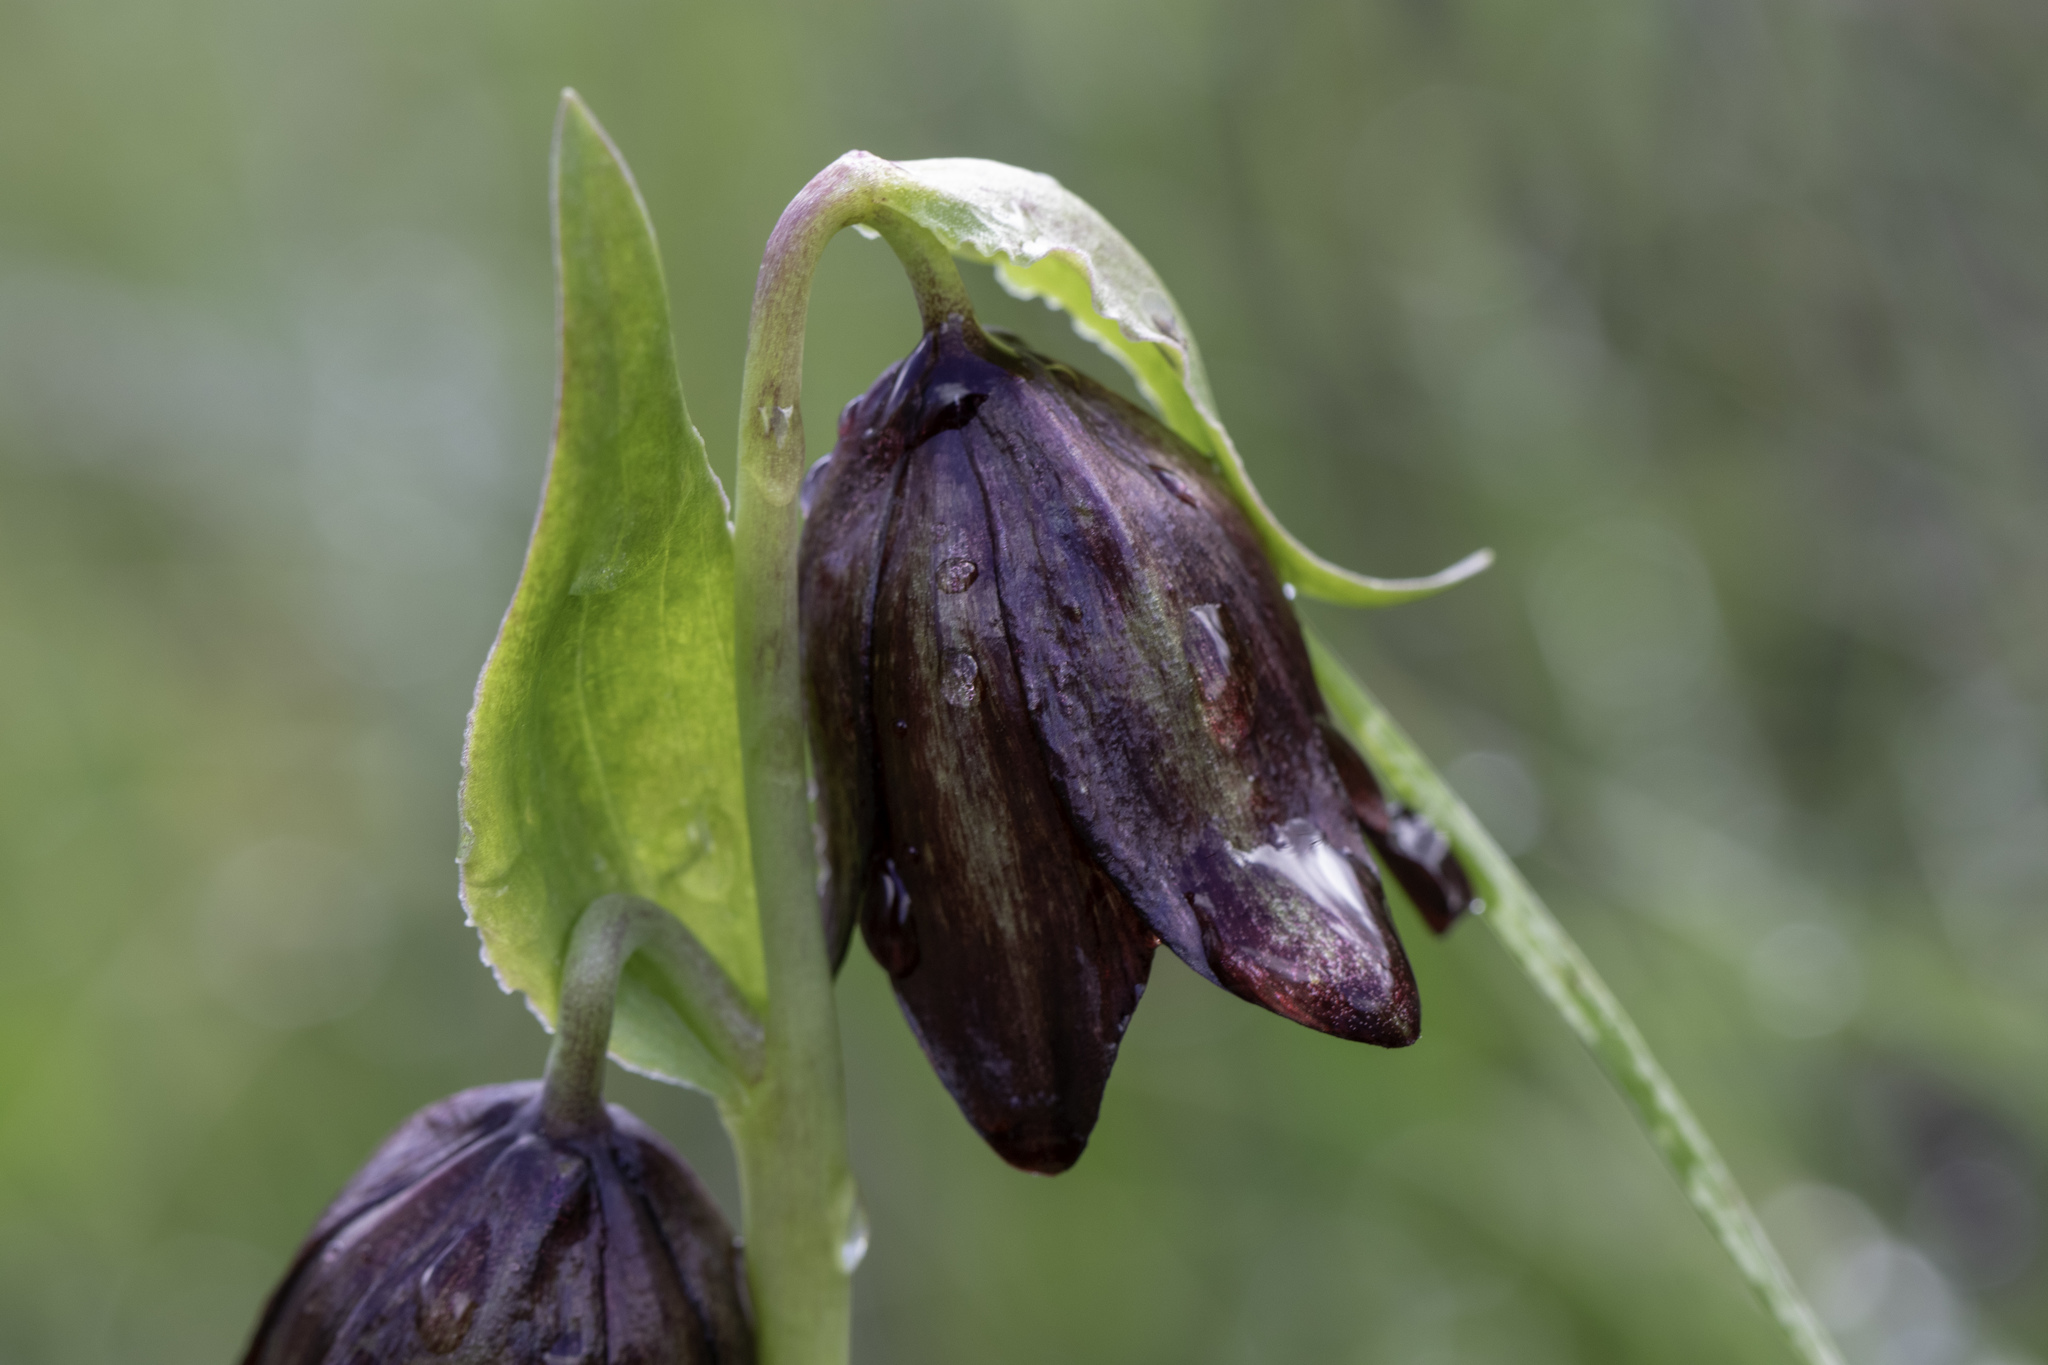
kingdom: Plantae
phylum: Tracheophyta
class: Liliopsida
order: Liliales
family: Liliaceae
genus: Fritillaria
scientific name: Fritillaria biflora
